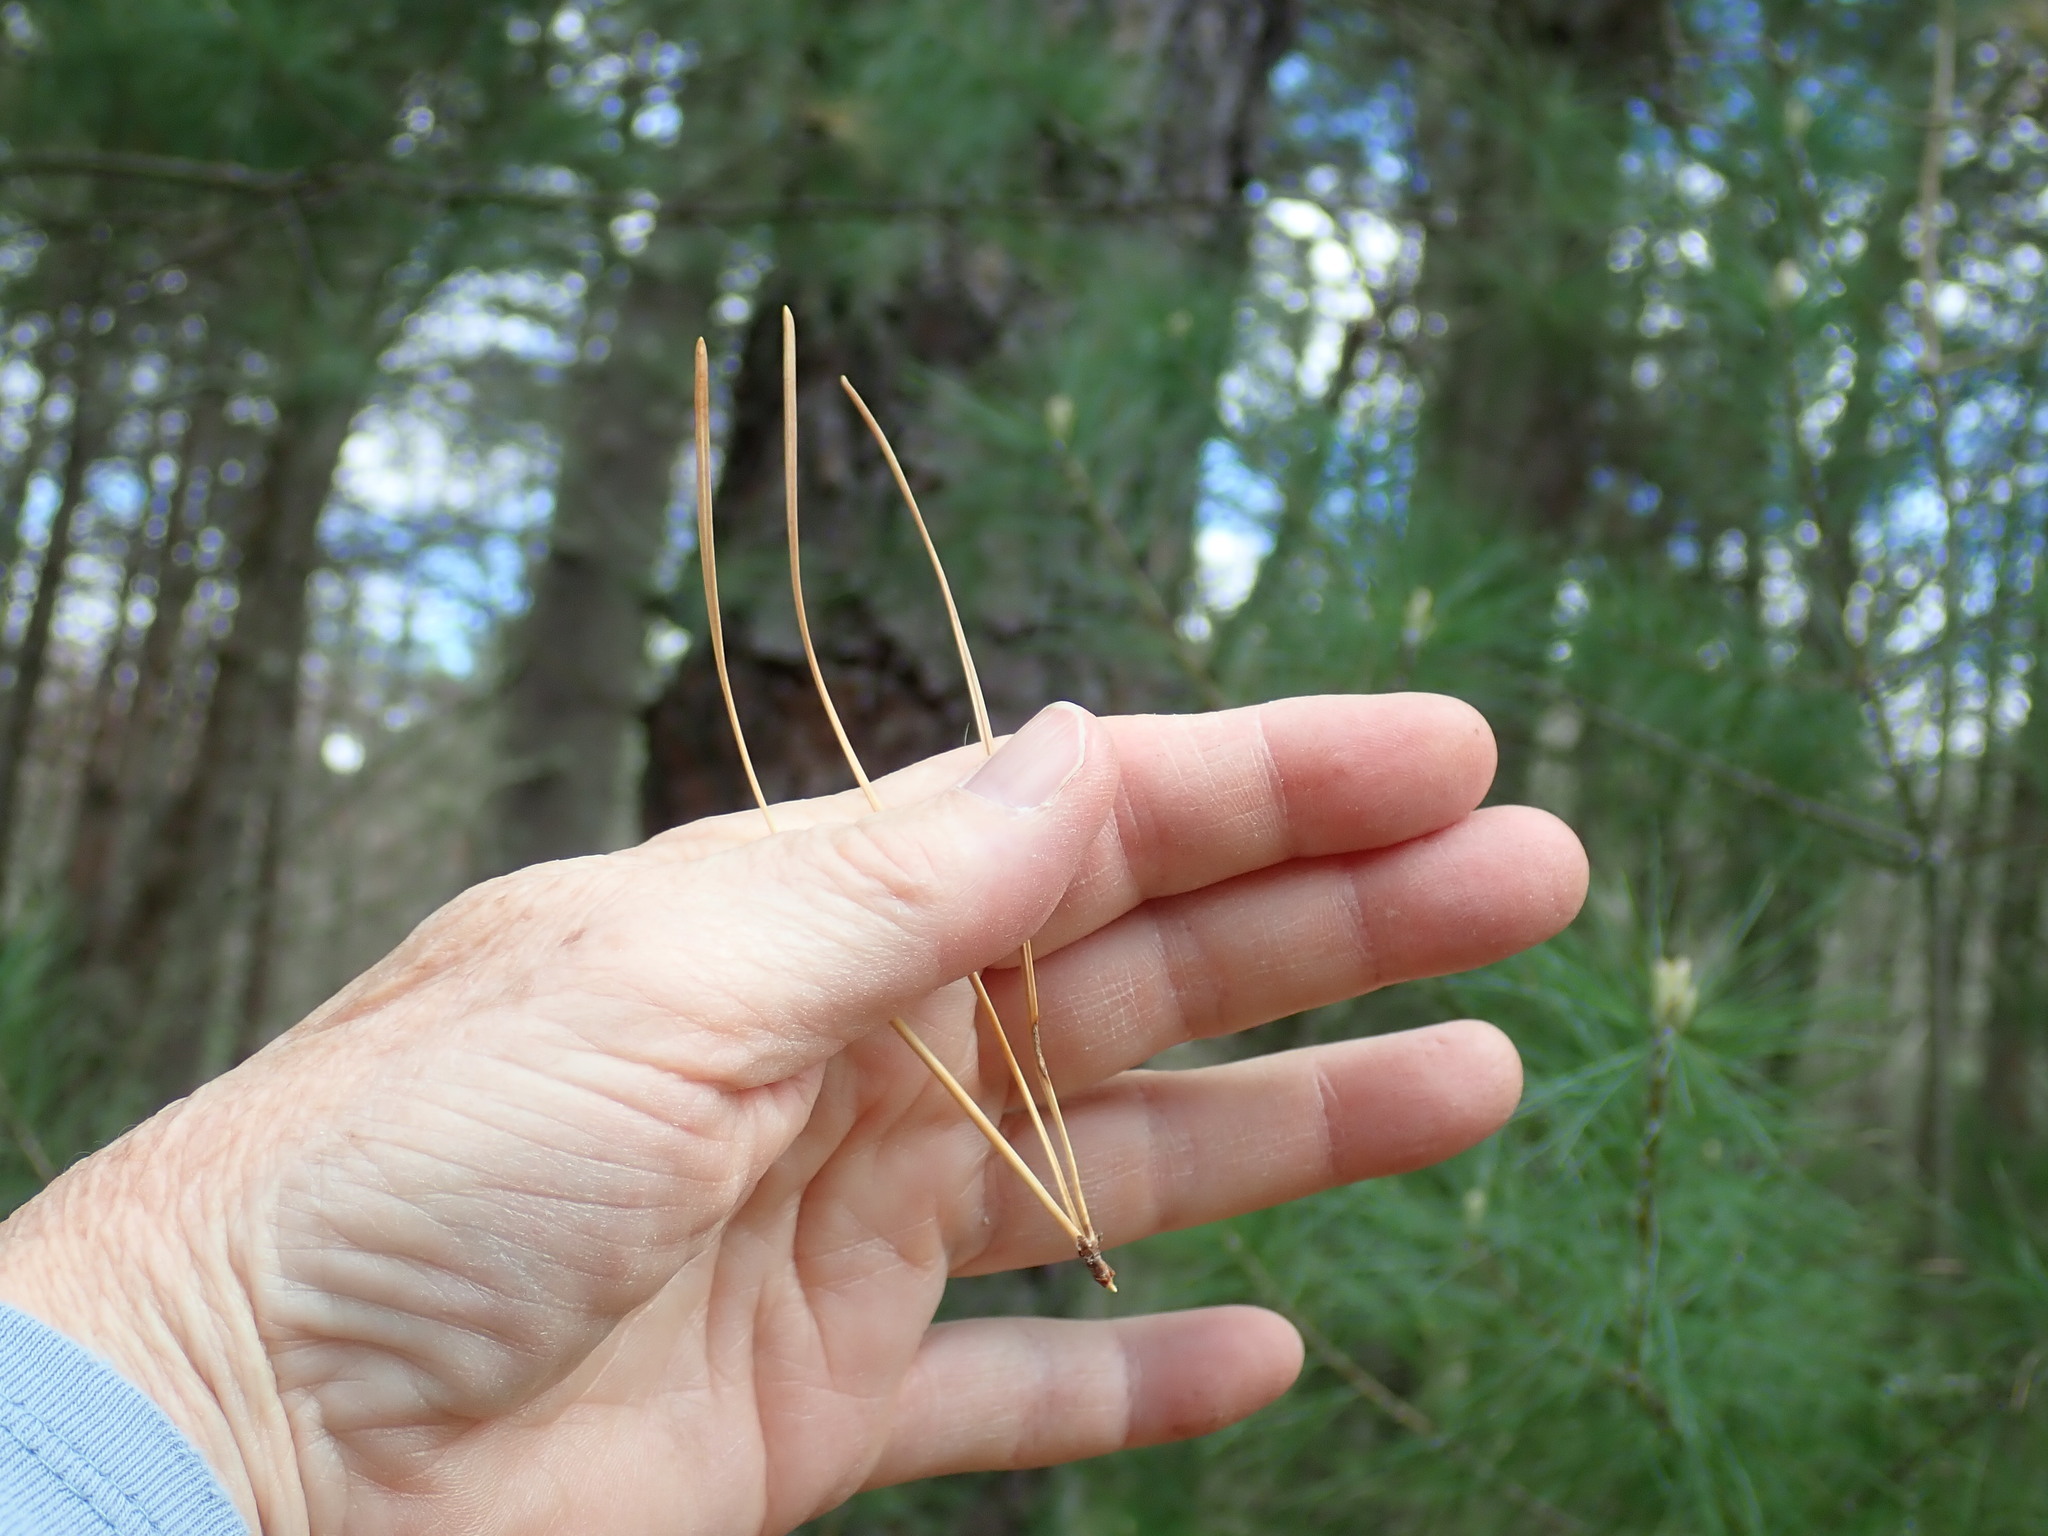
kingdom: Plantae
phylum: Tracheophyta
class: Pinopsida
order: Pinales
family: Pinaceae
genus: Pinus
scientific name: Pinus rigida
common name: Pitch pine
